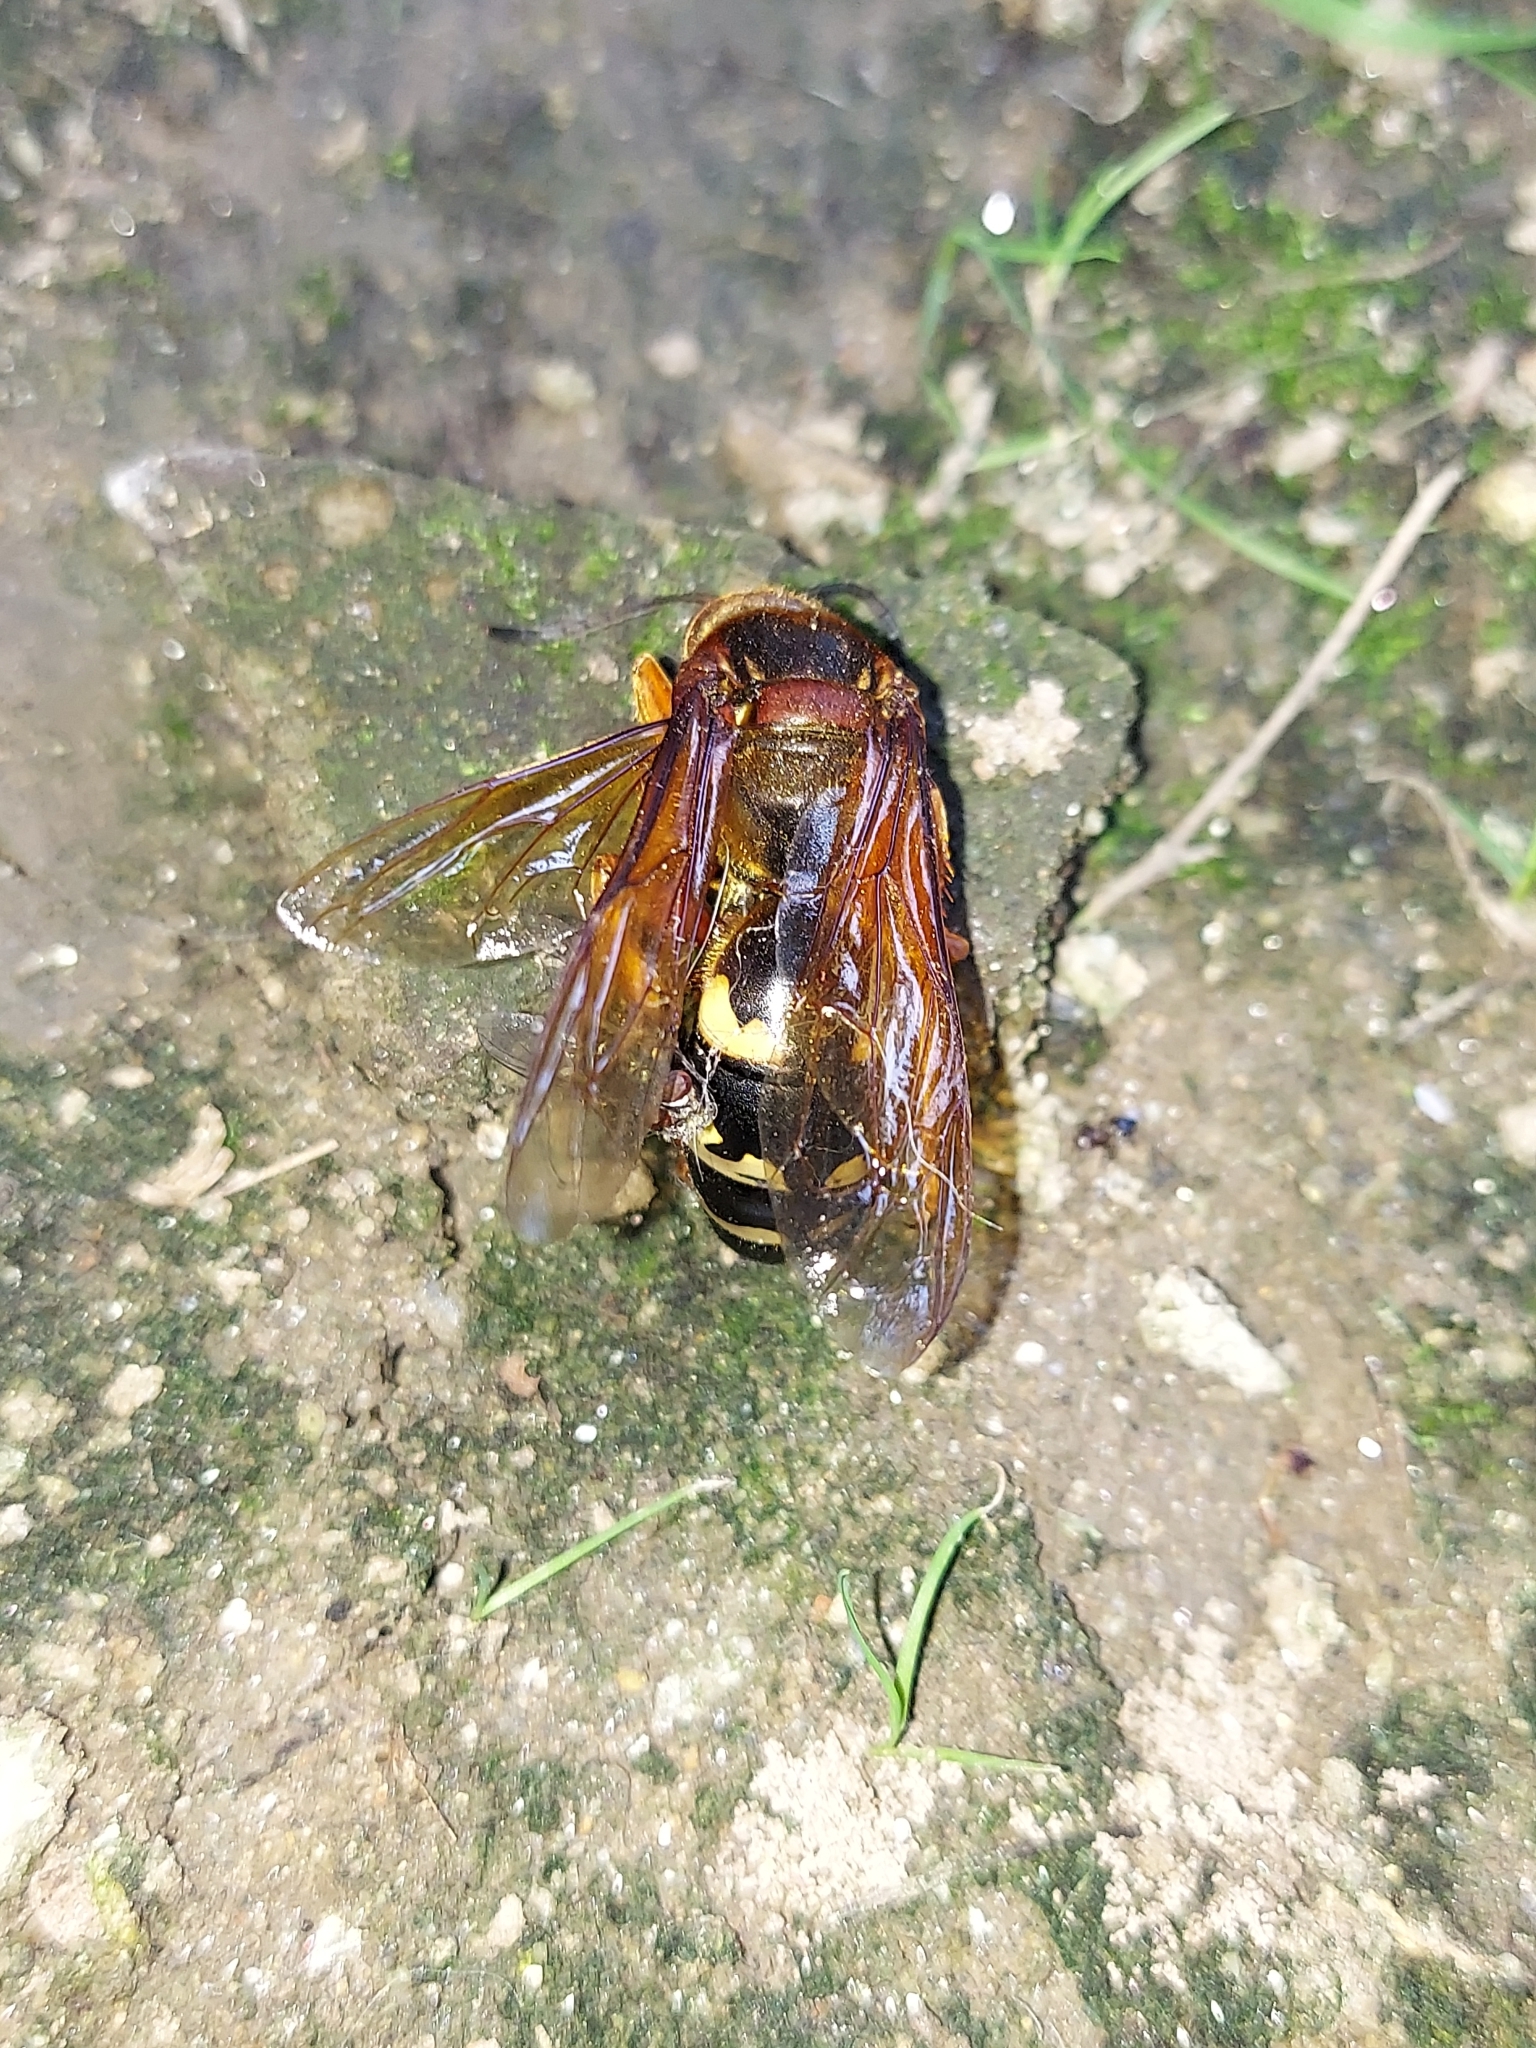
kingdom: Animalia
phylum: Arthropoda
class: Insecta
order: Hymenoptera
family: Crabronidae
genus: Sphecius
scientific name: Sphecius speciosus
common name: Cicada killer
